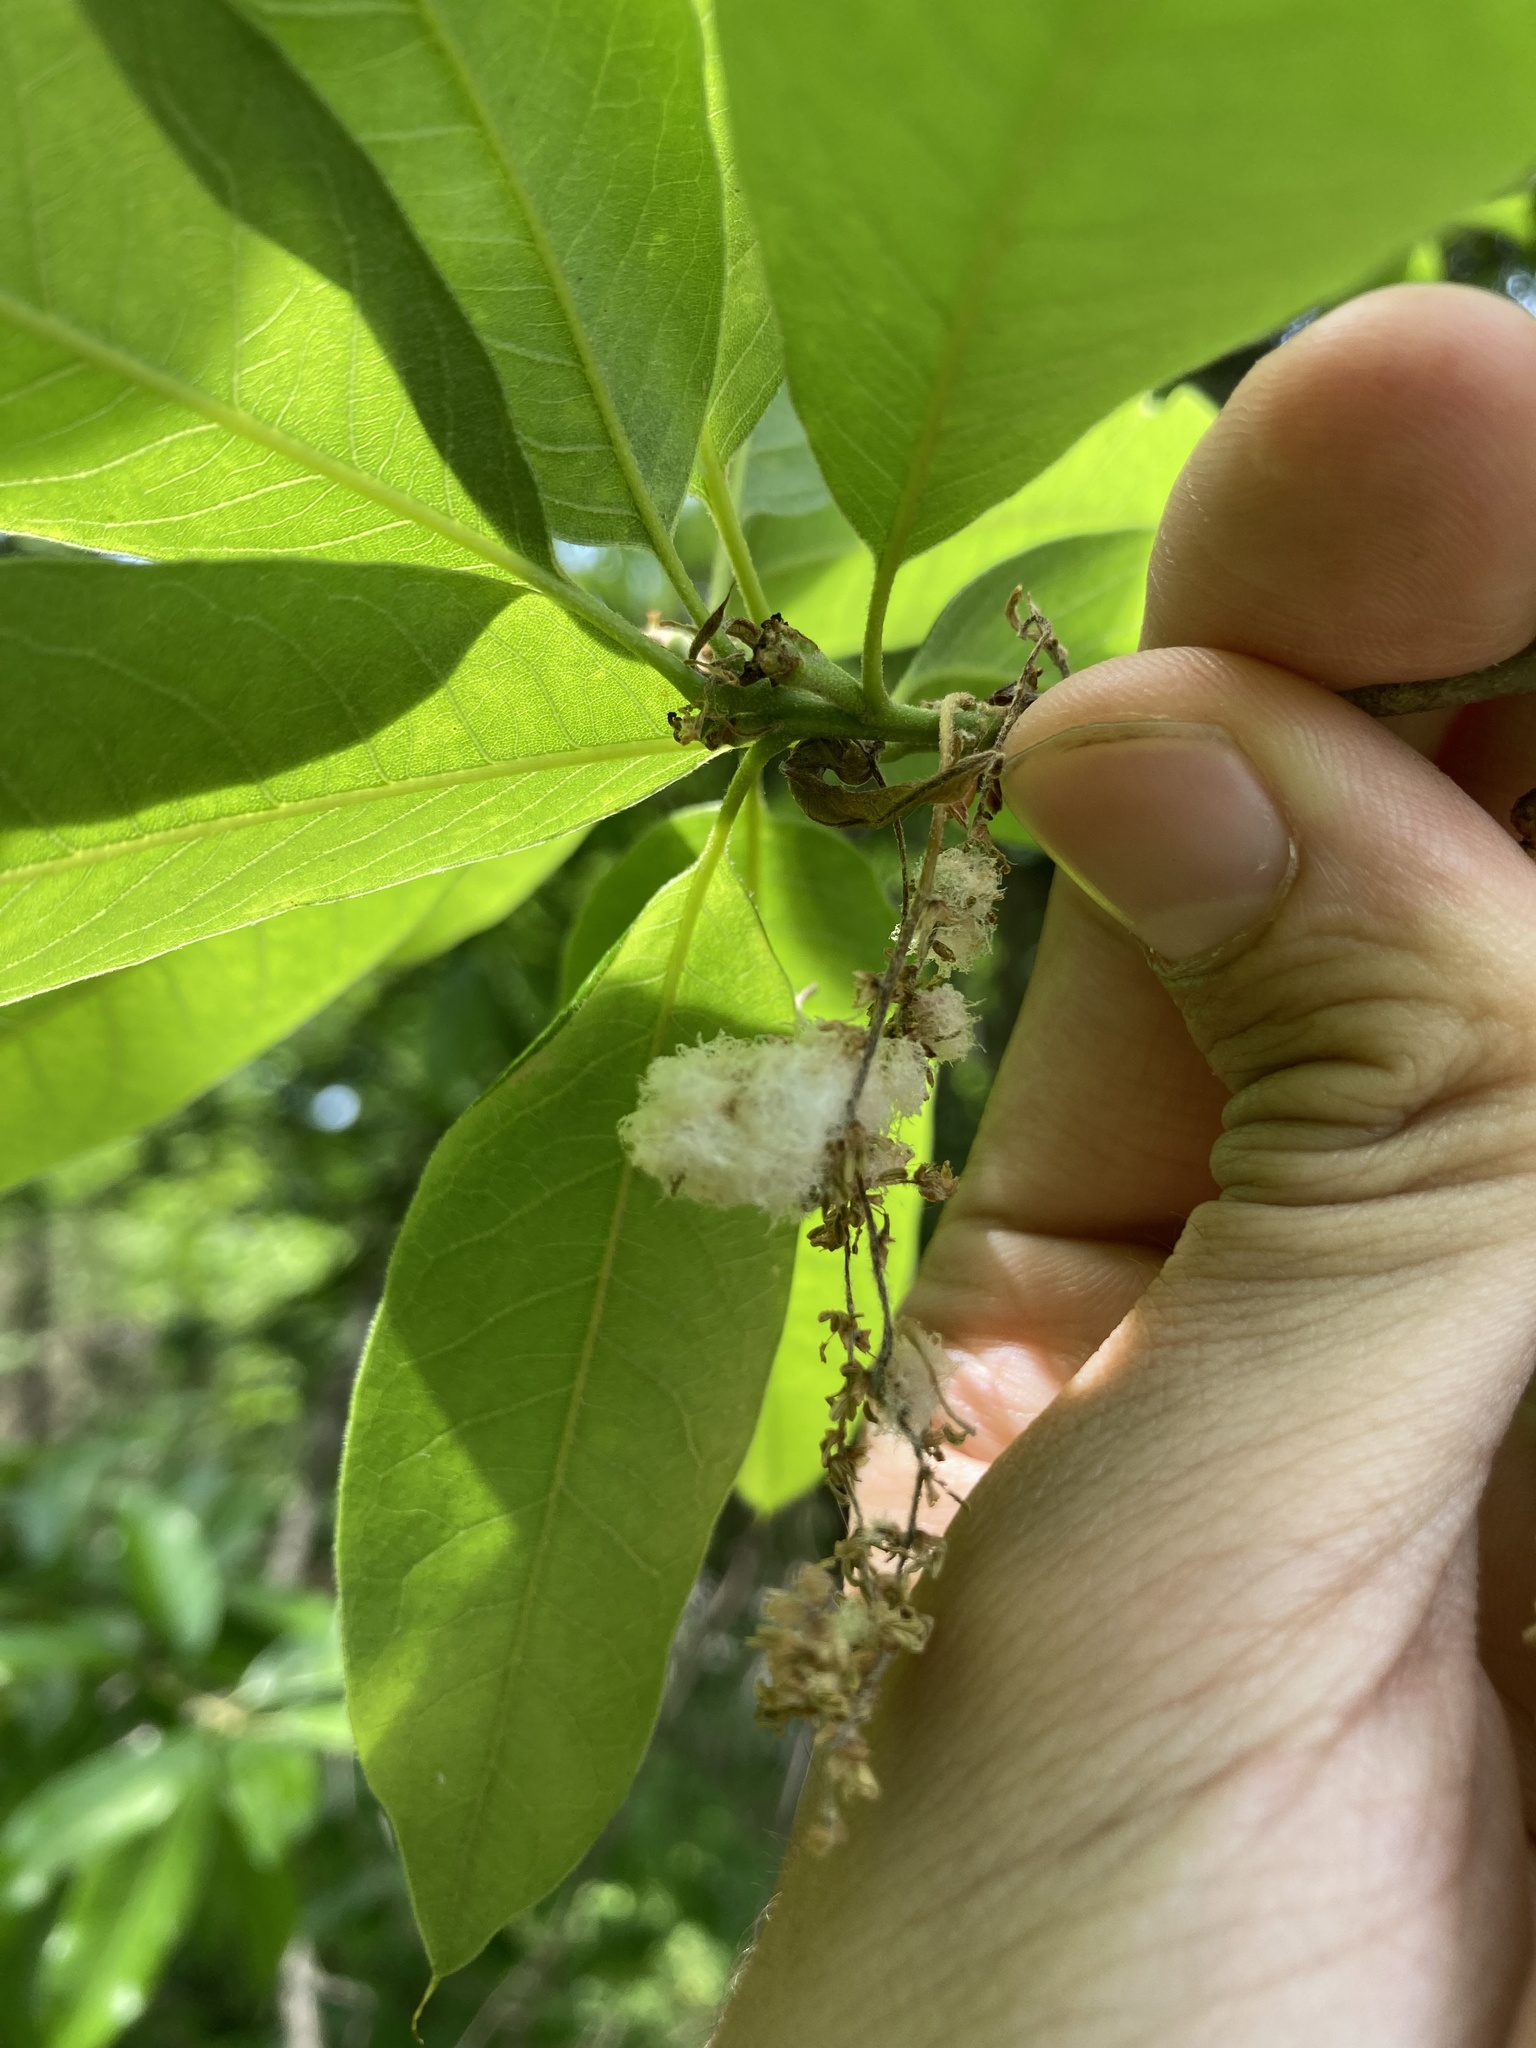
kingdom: Animalia
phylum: Arthropoda
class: Insecta
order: Hymenoptera
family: Cynipidae
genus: Callirhytis
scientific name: Callirhytis
